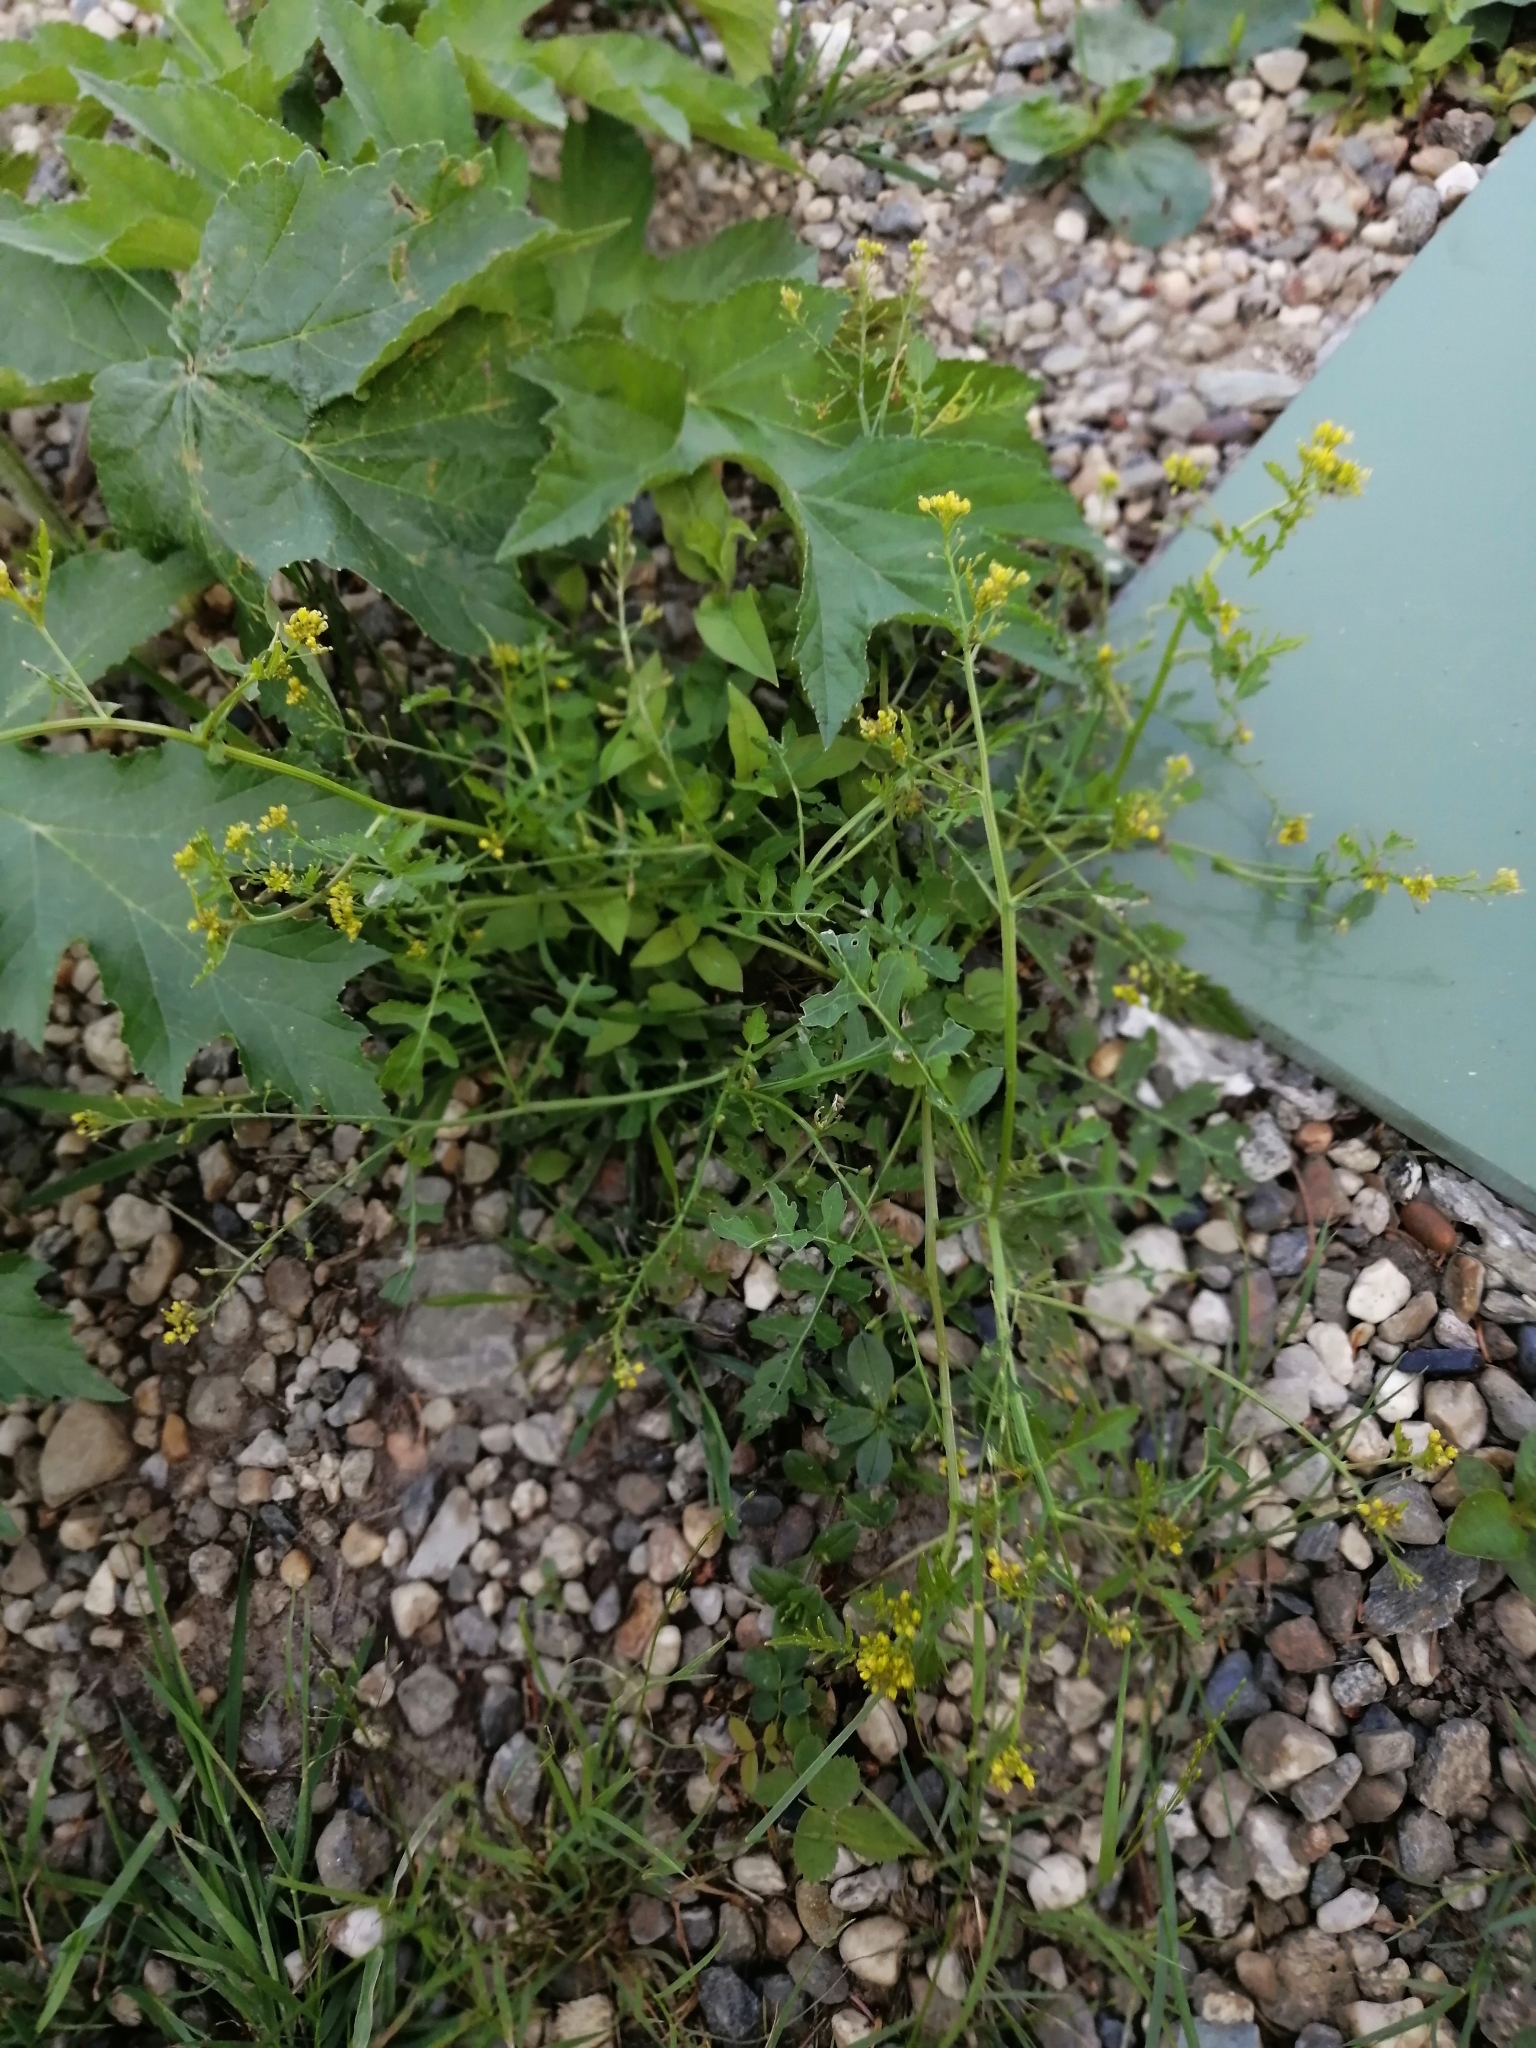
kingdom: Plantae
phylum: Tracheophyta
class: Magnoliopsida
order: Brassicales
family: Brassicaceae
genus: Rorippa
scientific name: Rorippa palustris
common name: Marsh yellow-cress
